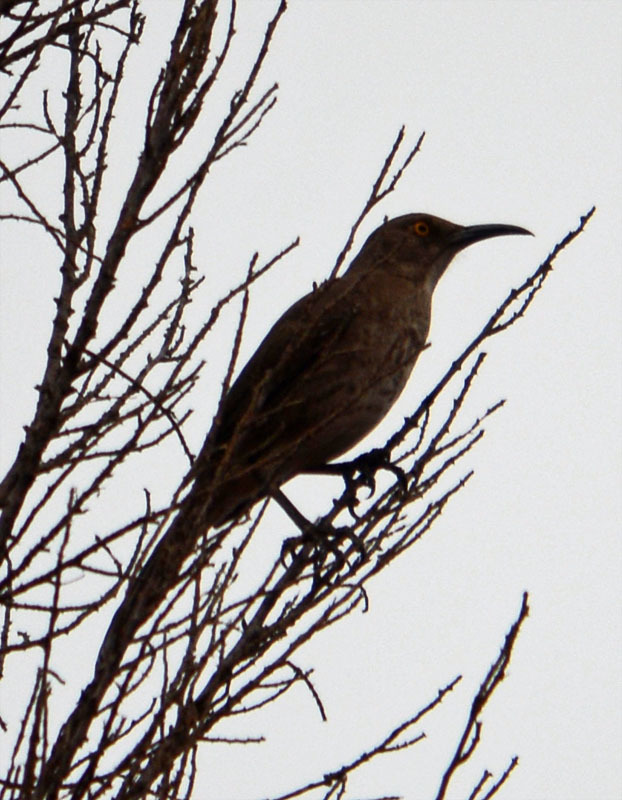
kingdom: Animalia
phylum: Chordata
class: Aves
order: Passeriformes
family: Mimidae
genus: Toxostoma
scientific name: Toxostoma curvirostre
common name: Curve-billed thrasher
